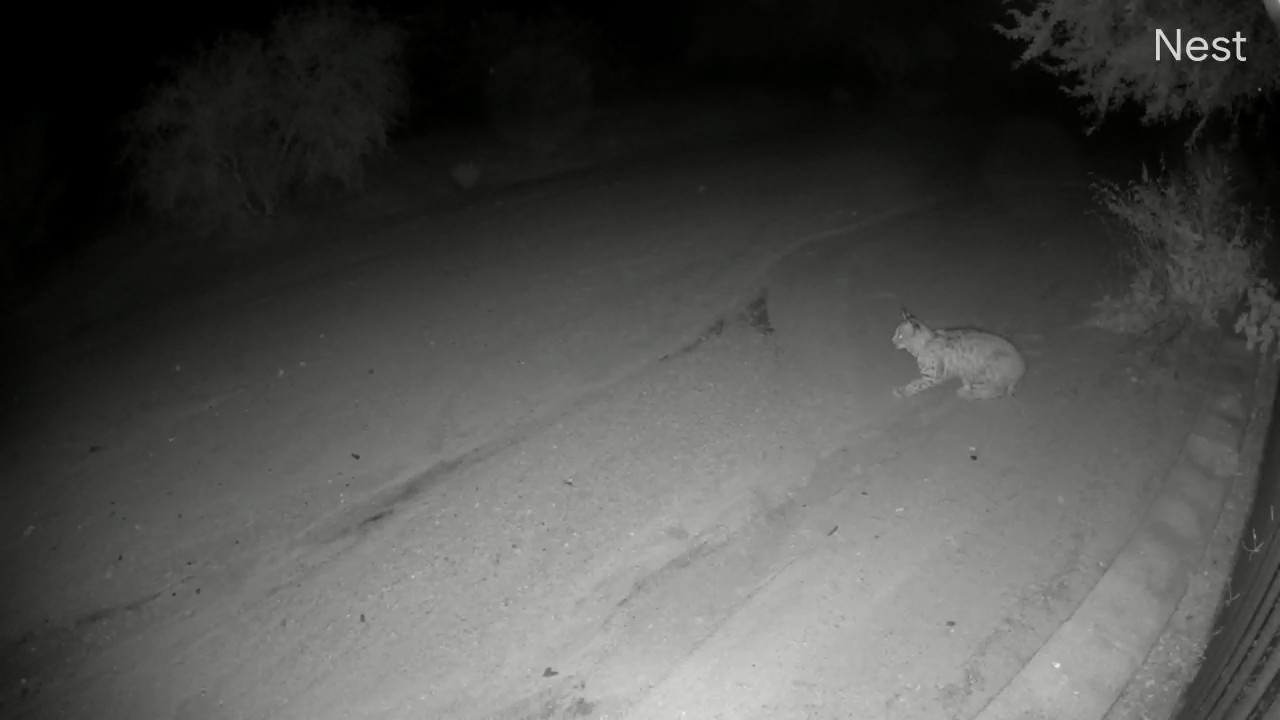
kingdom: Animalia
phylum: Chordata
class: Mammalia
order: Carnivora
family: Felidae
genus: Lynx
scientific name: Lynx rufus
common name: Bobcat
